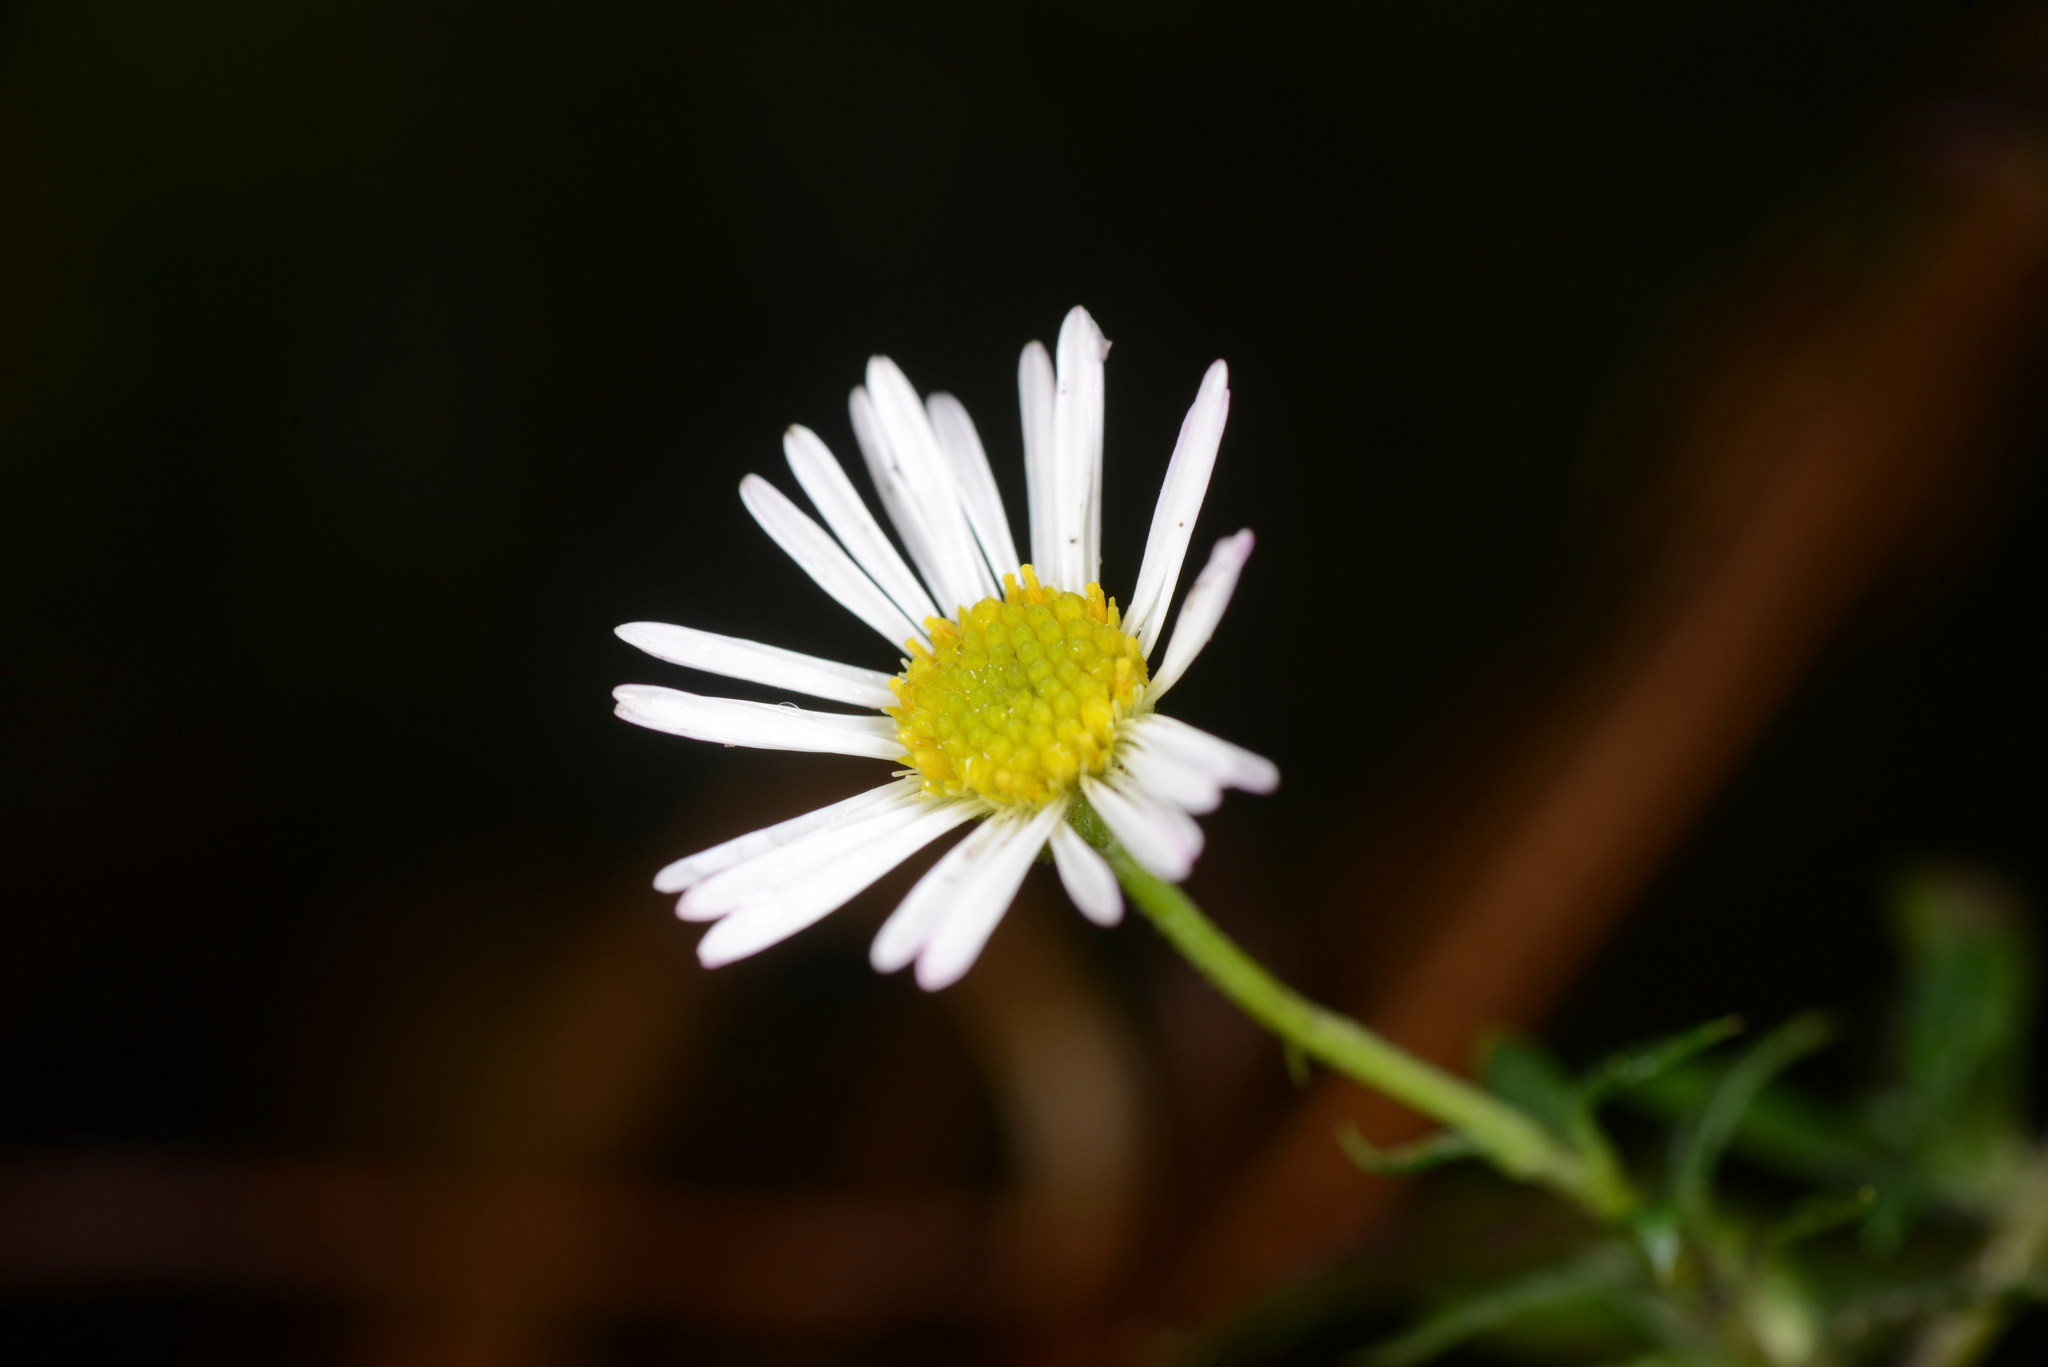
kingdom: Plantae
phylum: Tracheophyta
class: Magnoliopsida
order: Asterales
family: Asteraceae
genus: Erigeron
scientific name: Erigeron karvinskianus
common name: Mexican fleabane
